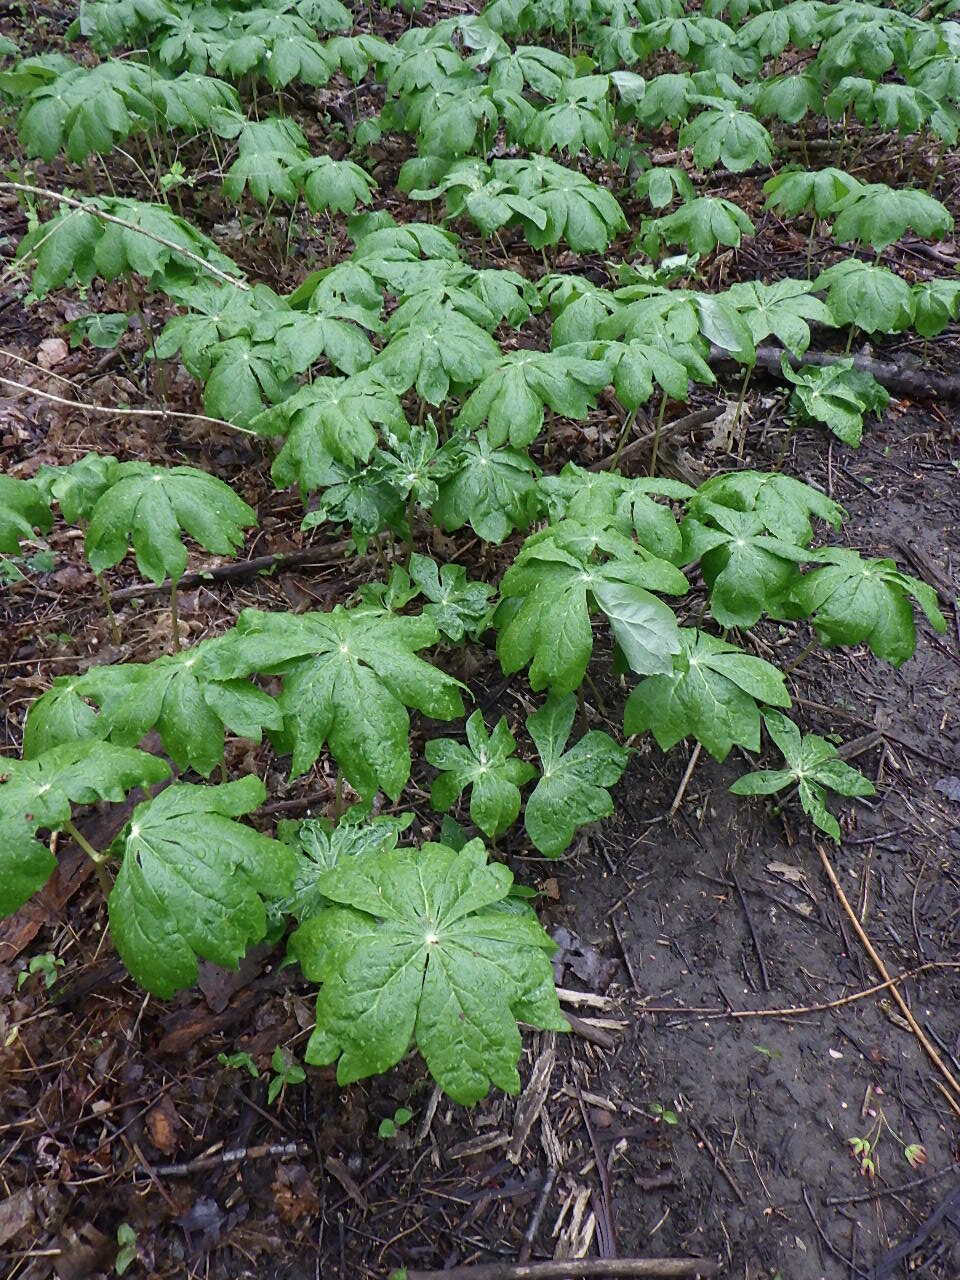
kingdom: Plantae
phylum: Tracheophyta
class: Magnoliopsida
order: Ranunculales
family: Berberidaceae
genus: Podophyllum
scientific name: Podophyllum peltatum
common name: Wild mandrake
